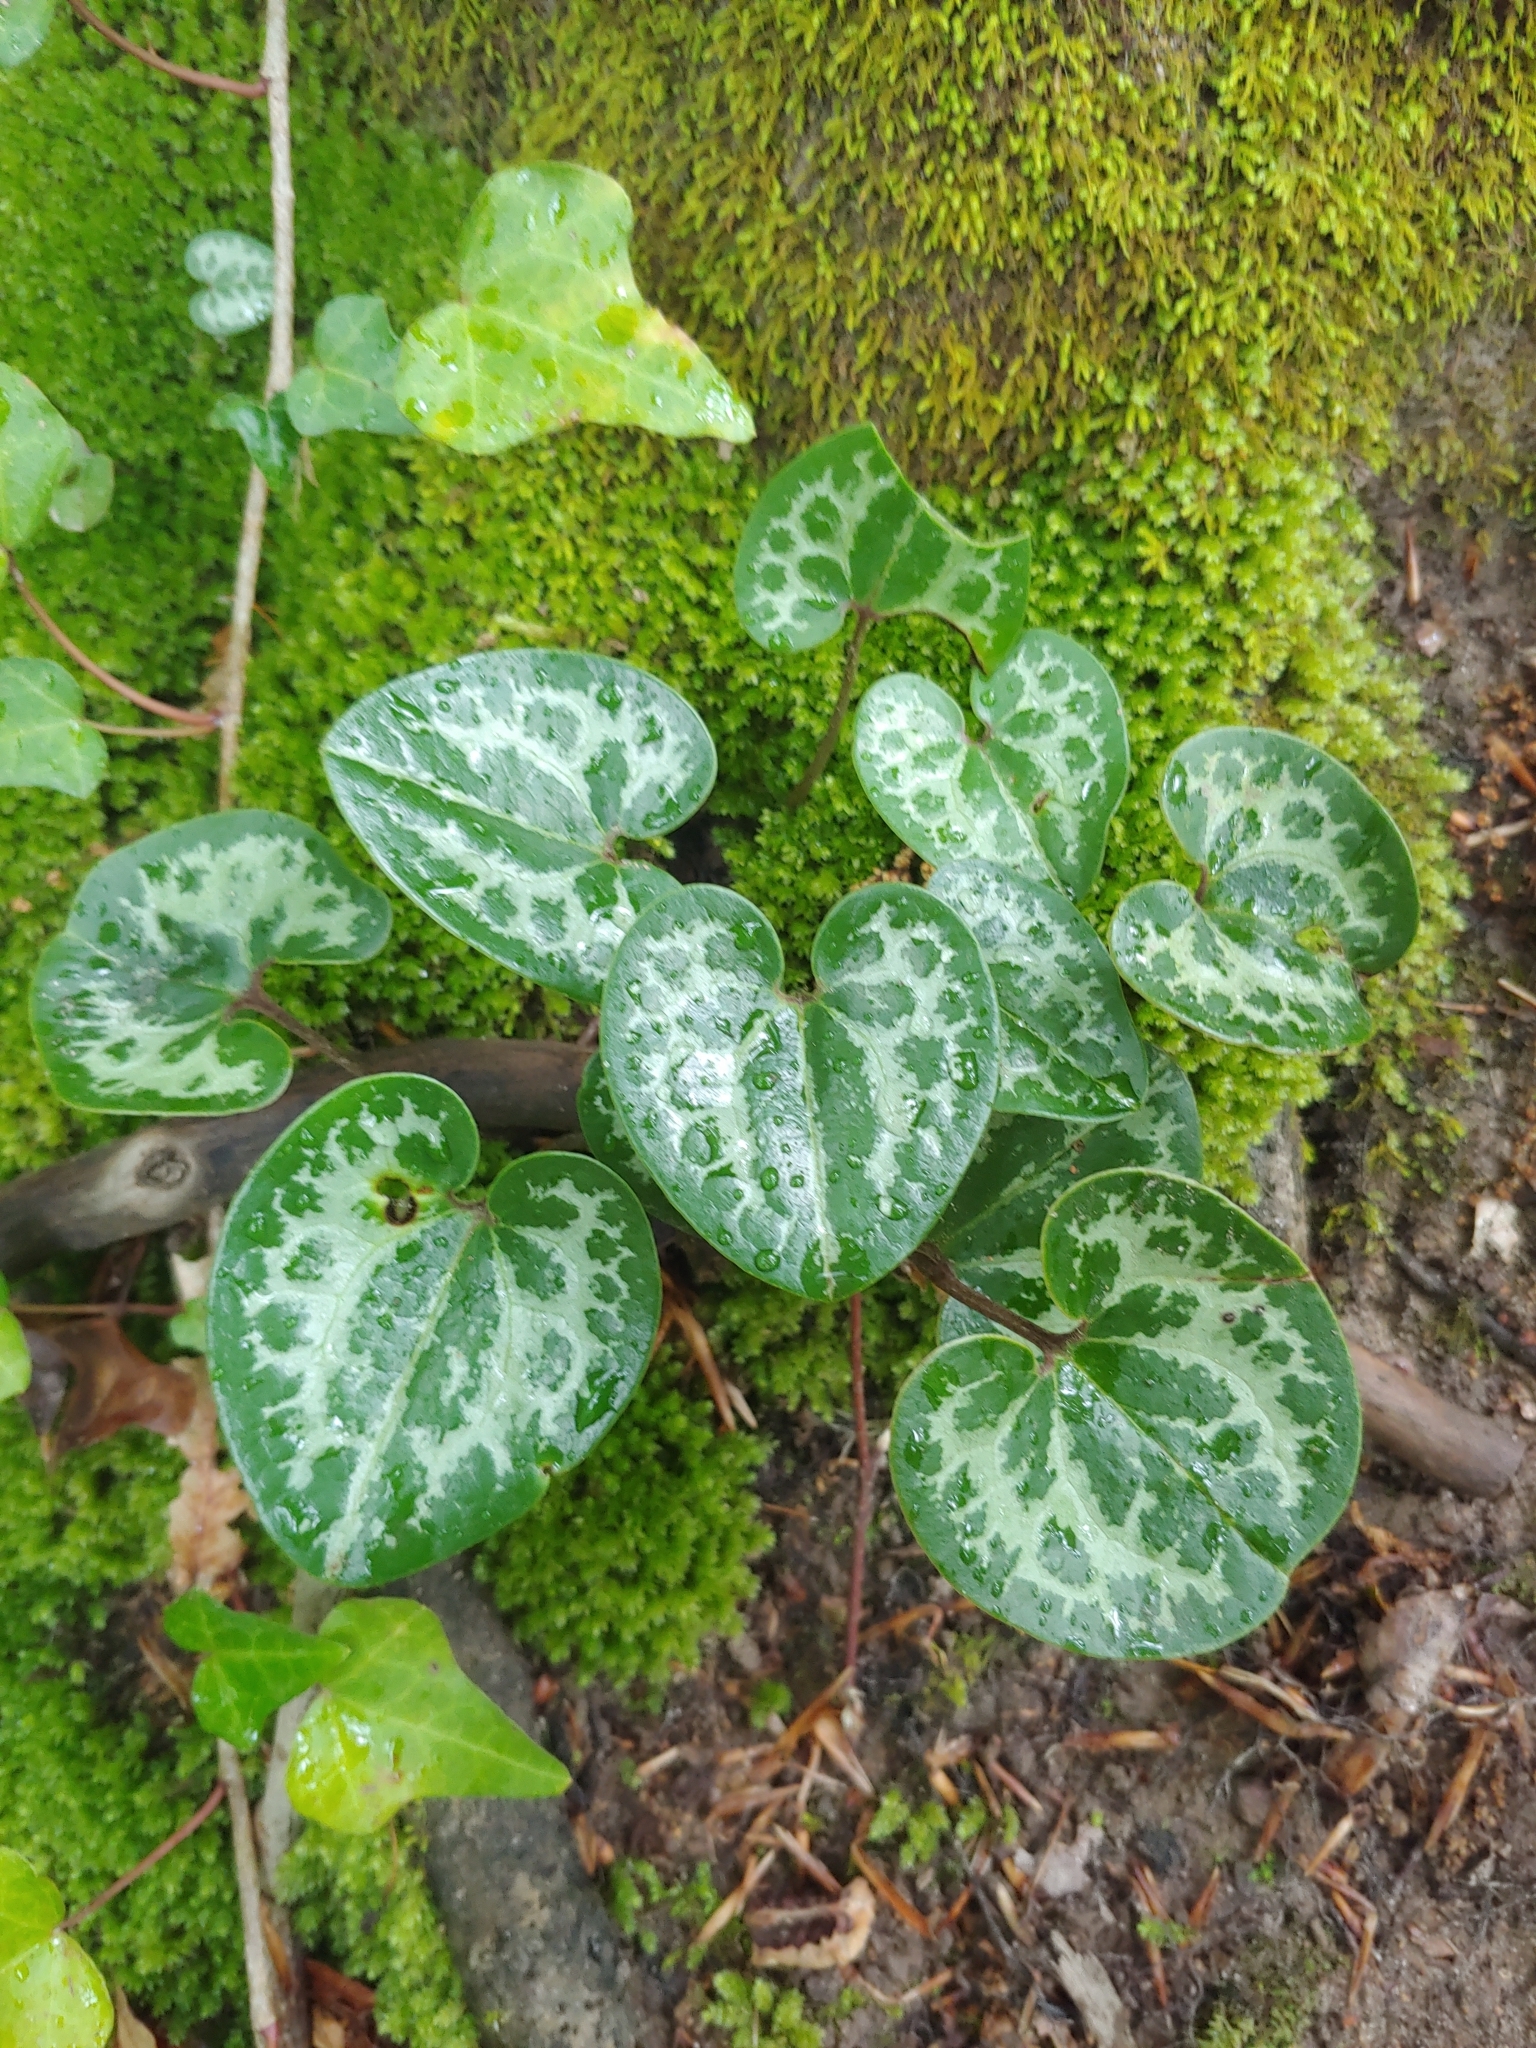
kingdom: Plantae
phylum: Tracheophyta
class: Magnoliopsida
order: Piperales
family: Aristolochiaceae
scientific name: Aristolochiaceae
